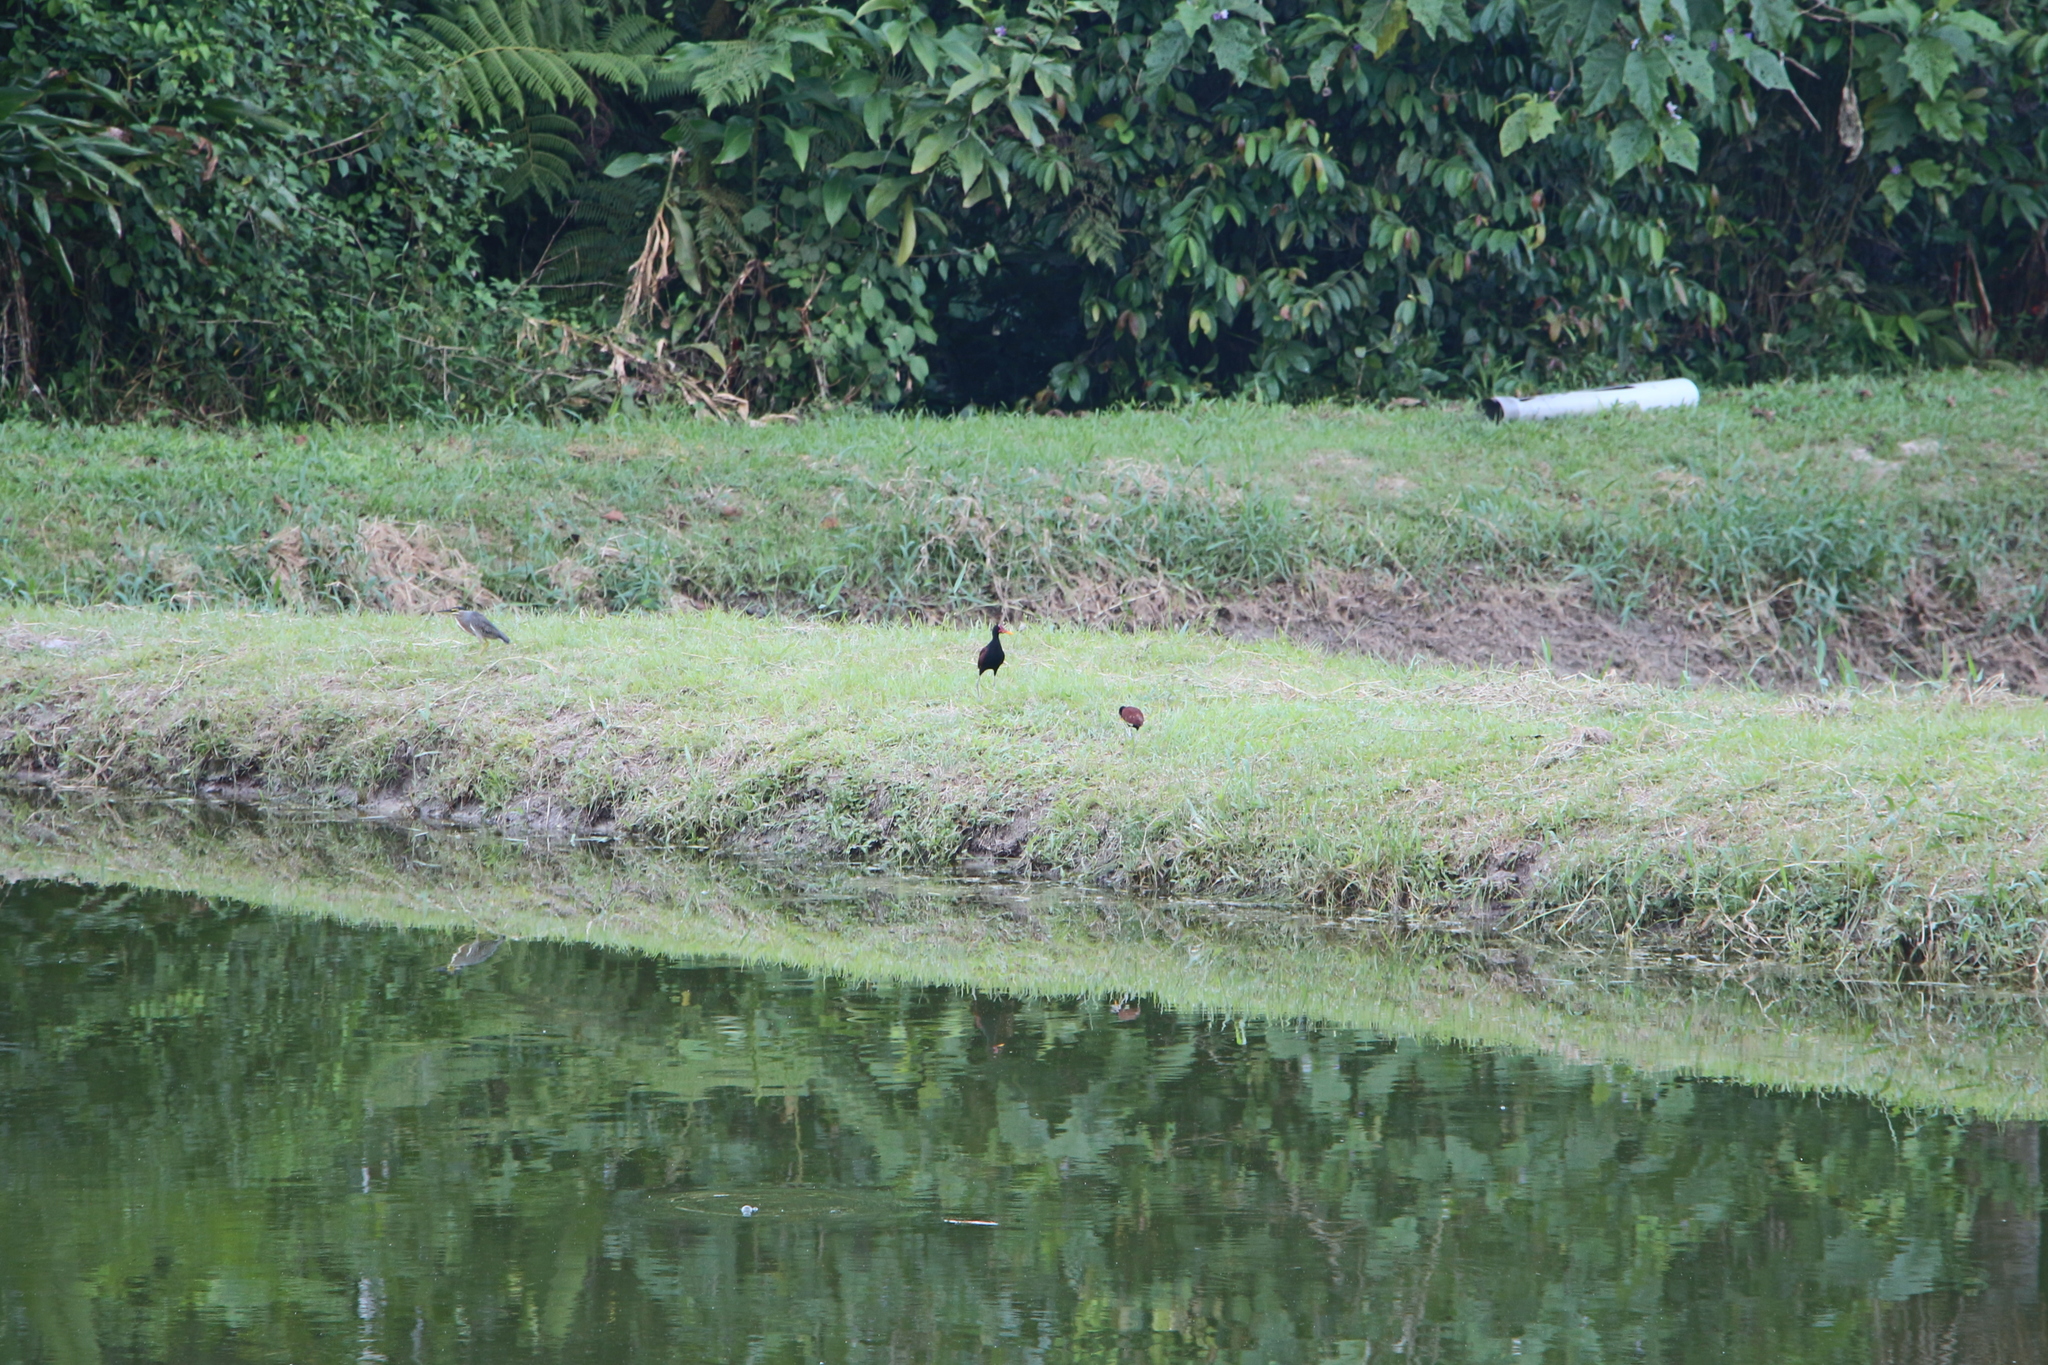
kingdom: Animalia
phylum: Chordata
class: Aves
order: Charadriiformes
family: Jacanidae
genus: Jacana
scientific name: Jacana jacana
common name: Wattled jacana
